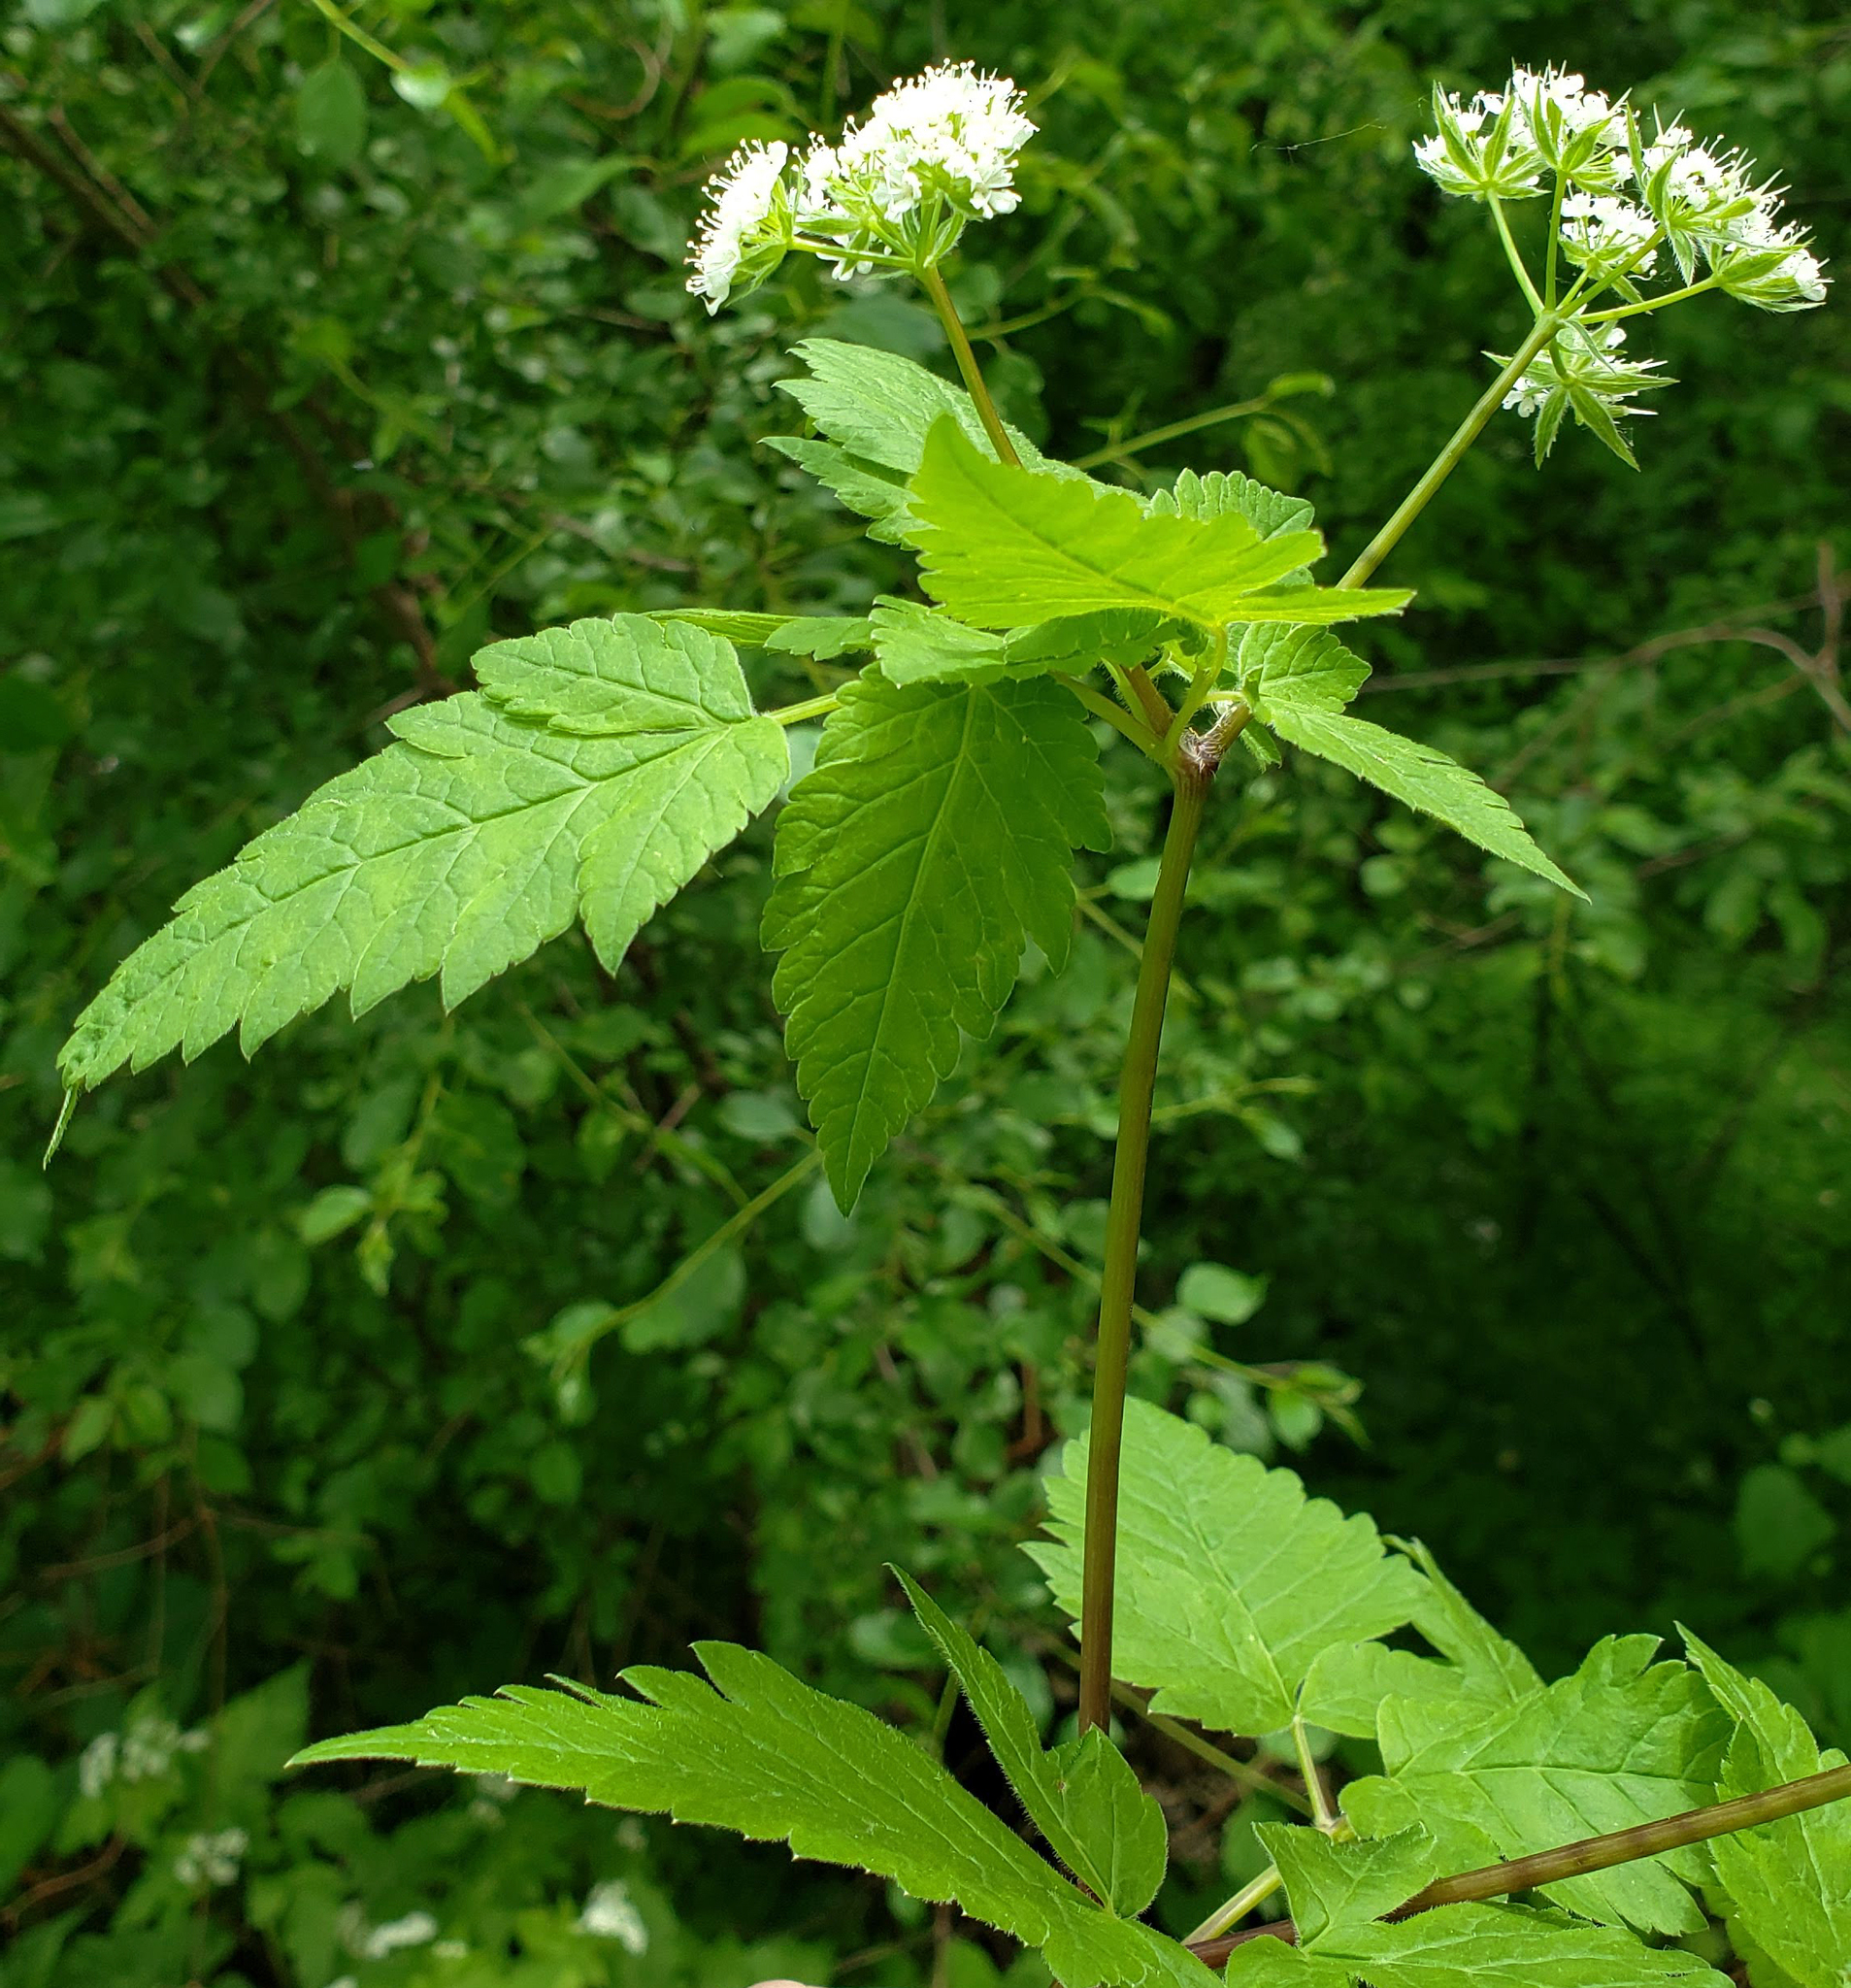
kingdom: Plantae
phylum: Tracheophyta
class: Magnoliopsida
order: Apiales
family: Apiaceae
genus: Osmorhiza
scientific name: Osmorhiza longistylis
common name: Smooth sweet cicely
